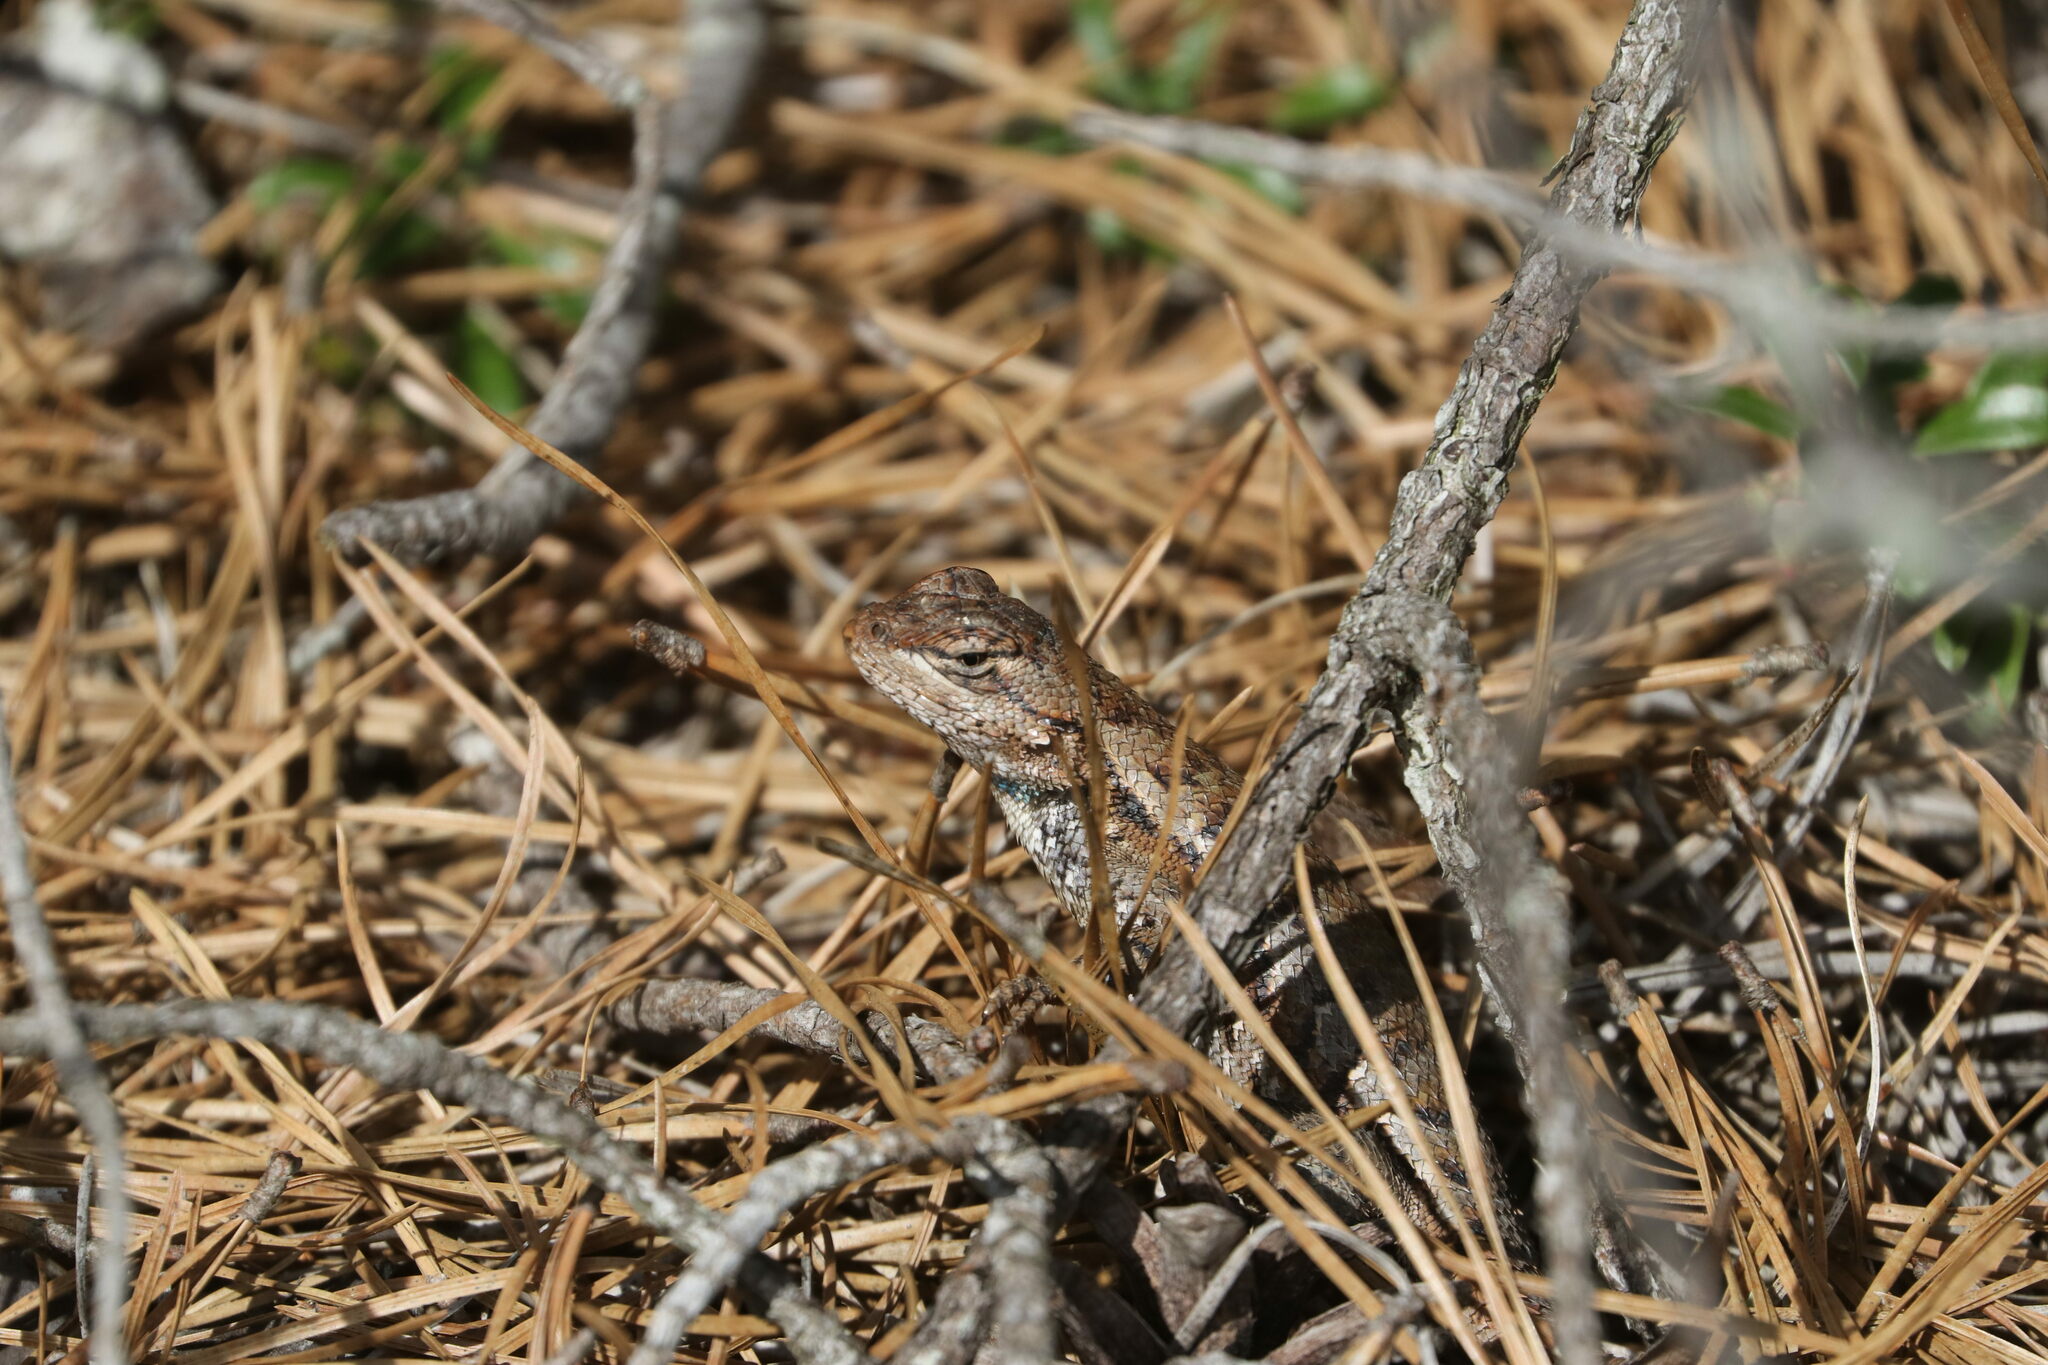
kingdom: Animalia
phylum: Chordata
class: Squamata
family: Phrynosomatidae
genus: Sceloporus
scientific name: Sceloporus undulatus
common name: Eastern fence lizard
